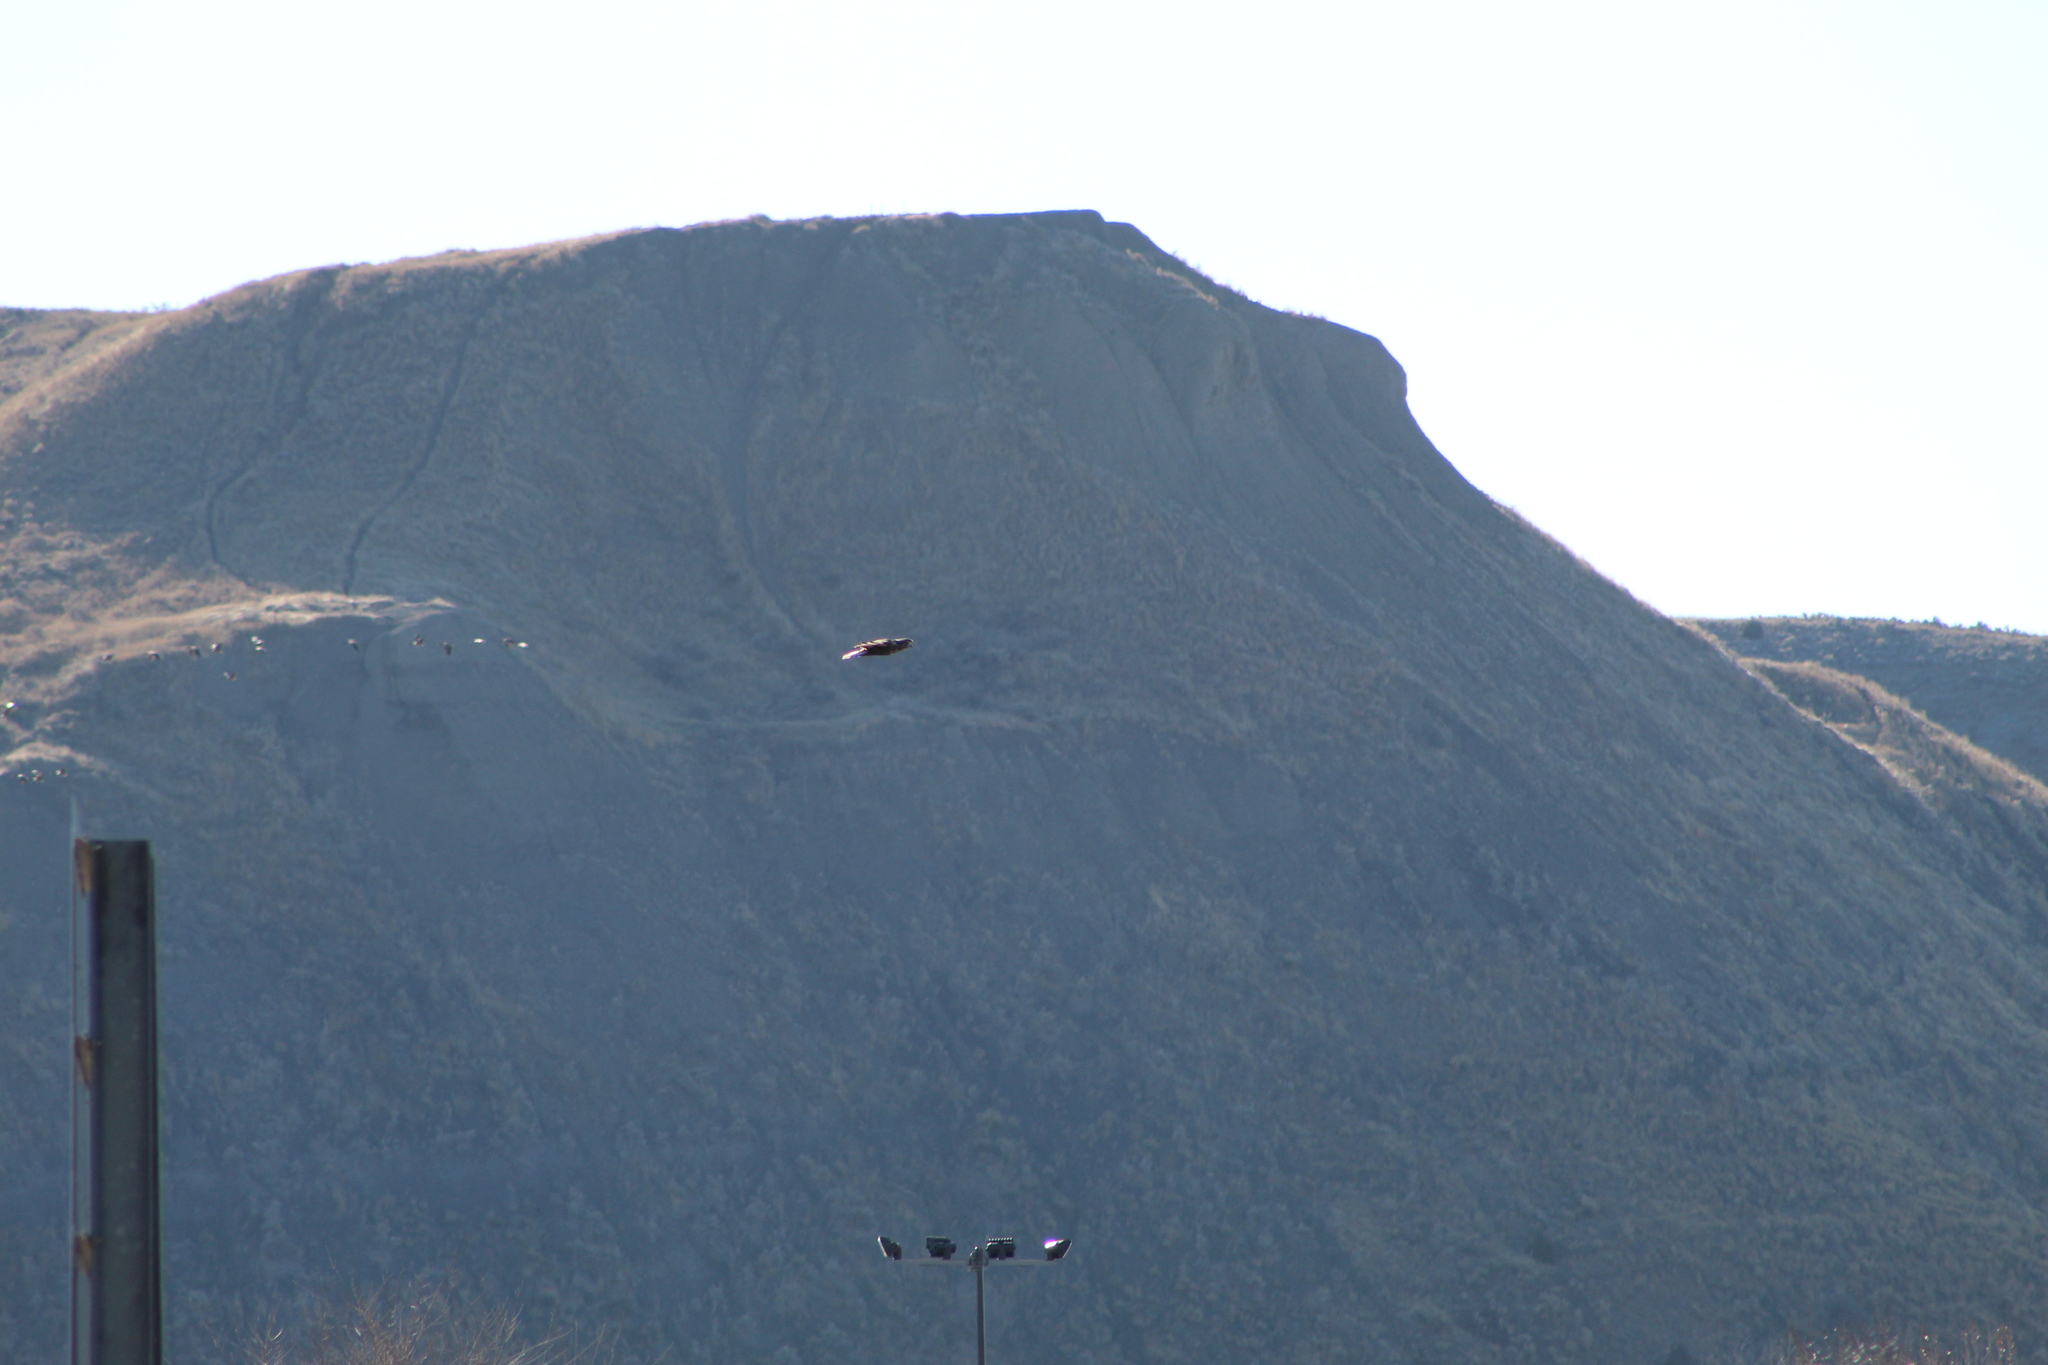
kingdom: Animalia
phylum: Chordata
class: Aves
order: Accipitriformes
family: Accipitridae
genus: Buteo
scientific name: Buteo jamaicensis
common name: Red-tailed hawk
